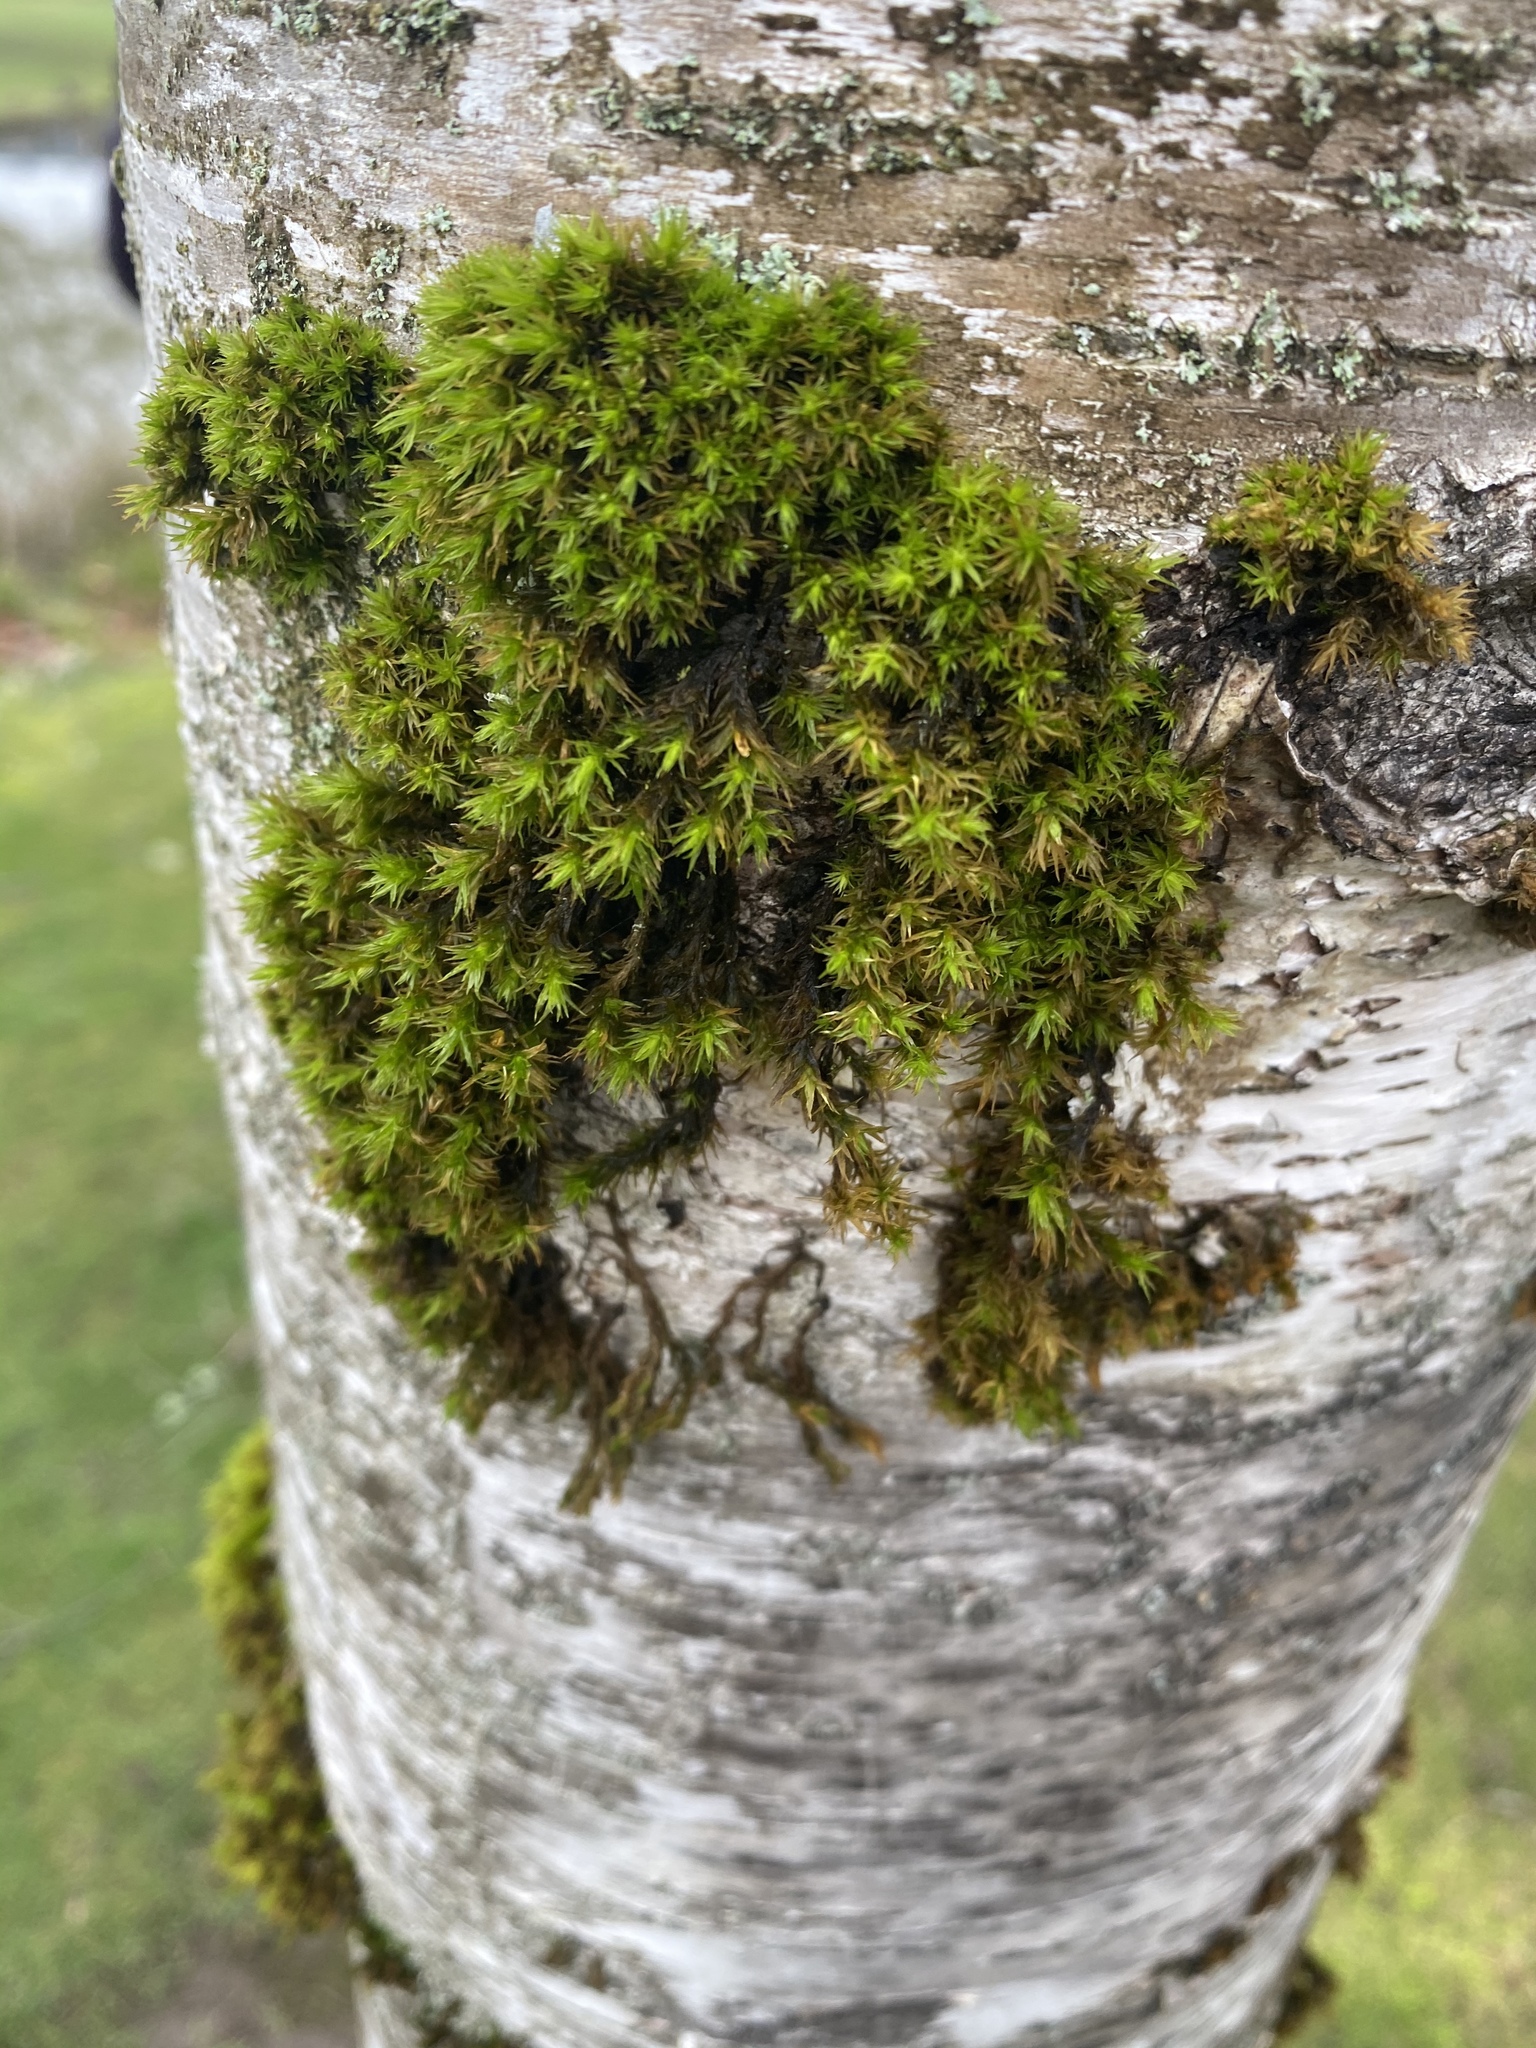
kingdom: Plantae
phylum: Bryophyta
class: Bryopsida
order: Orthotrichales
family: Orthotrichaceae
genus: Pulvigera
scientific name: Pulvigera lyellii
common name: Lyell's bristle-moss
